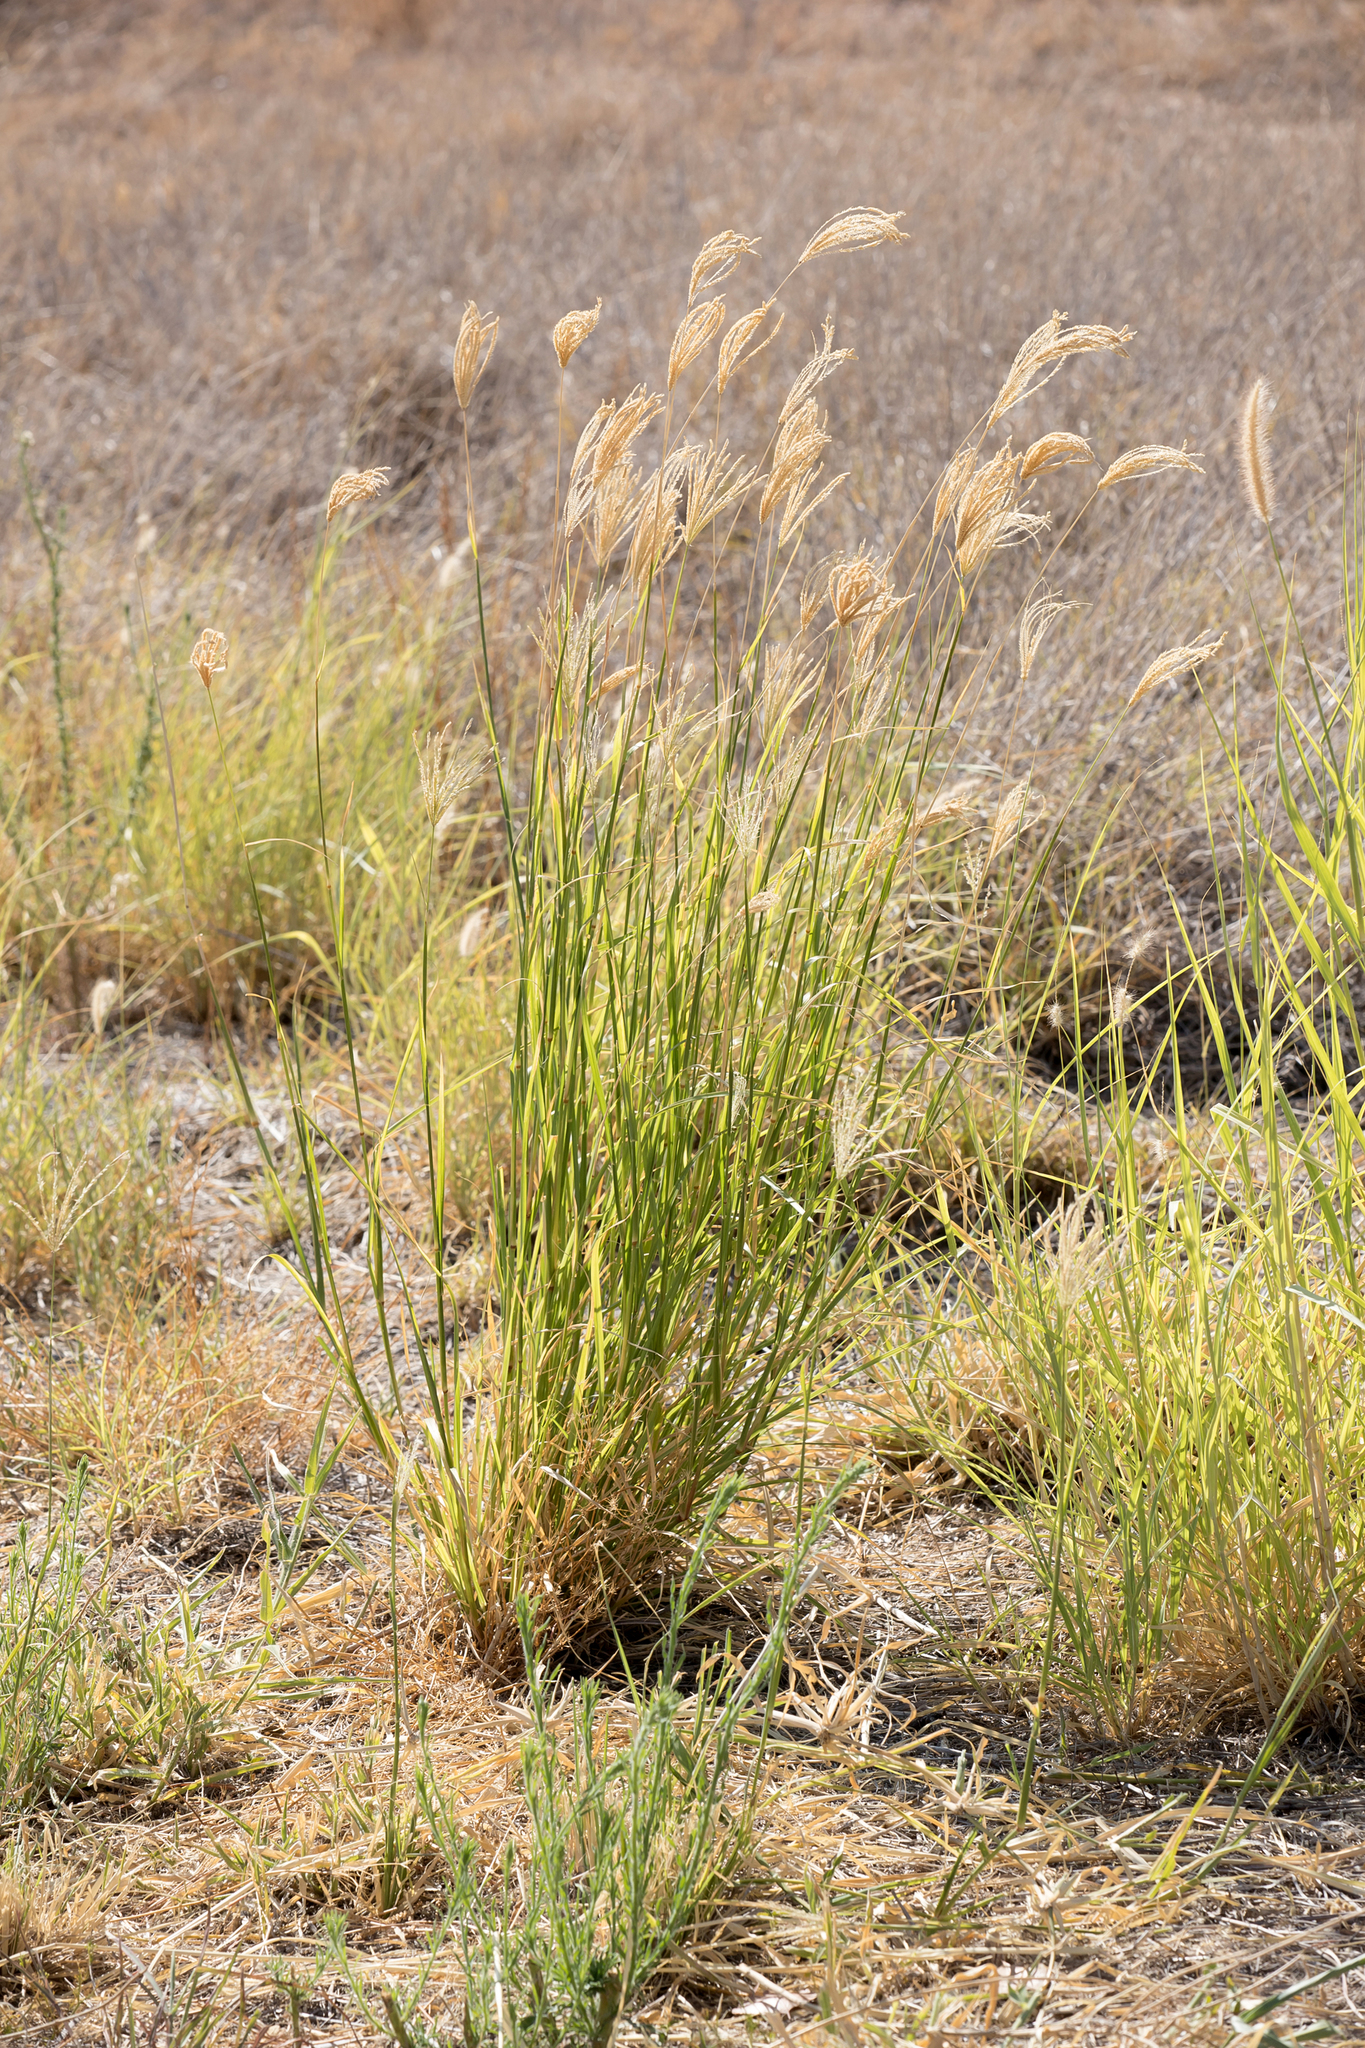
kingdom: Plantae
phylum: Tracheophyta
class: Liliopsida
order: Poales
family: Poaceae
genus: Chloris
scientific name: Chloris virgata
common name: Feathery rhodes-grass
